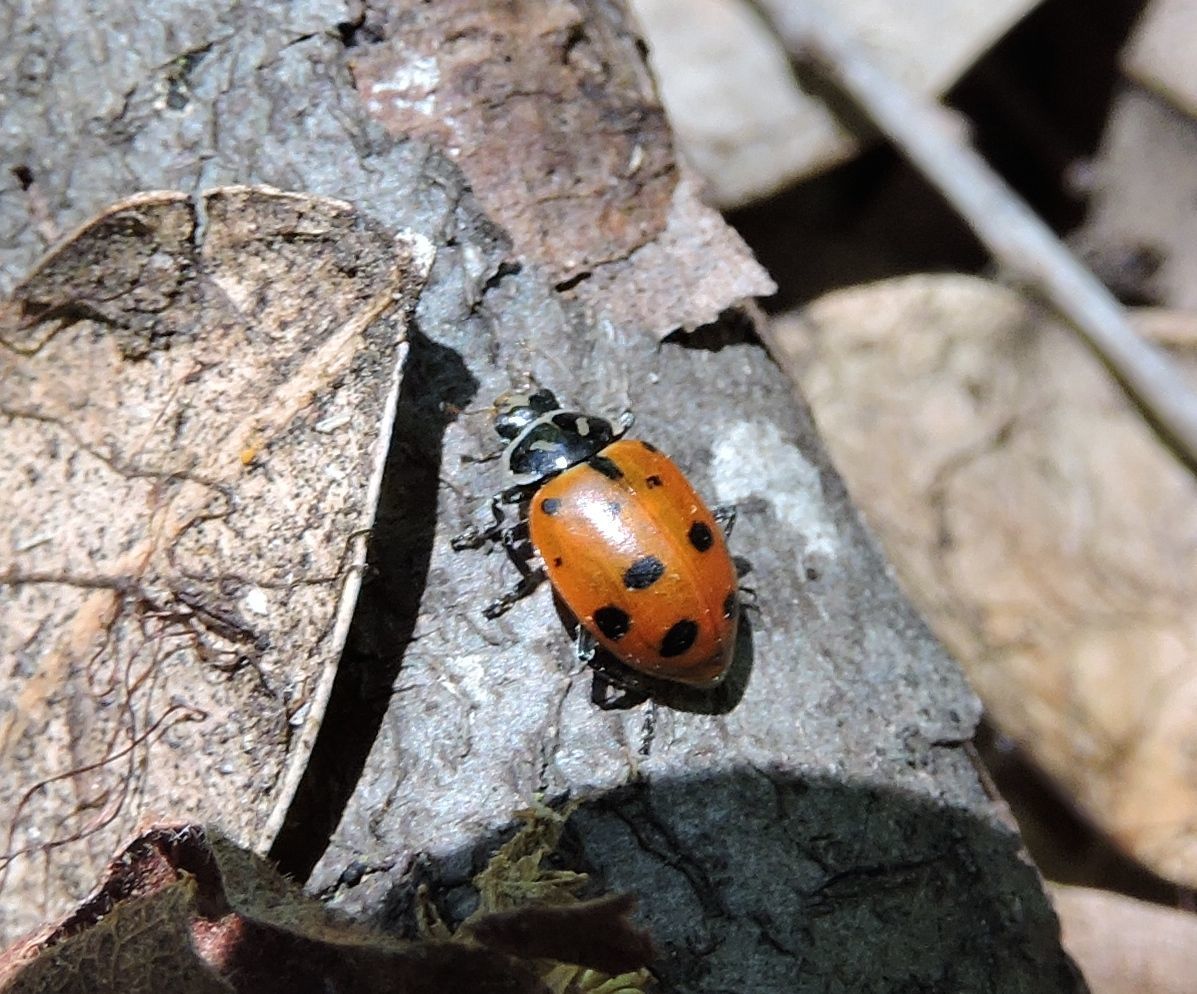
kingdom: Animalia
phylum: Arthropoda
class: Insecta
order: Coleoptera
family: Coccinellidae
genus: Hippodamia
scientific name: Hippodamia convergens
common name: Convergent lady beetle
